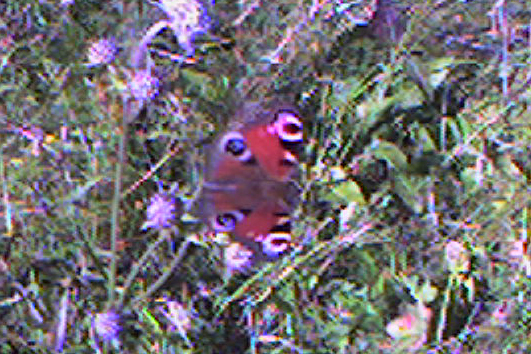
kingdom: Animalia
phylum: Arthropoda
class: Insecta
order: Lepidoptera
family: Nymphalidae
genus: Aglais
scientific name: Aglais io
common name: Peacock
